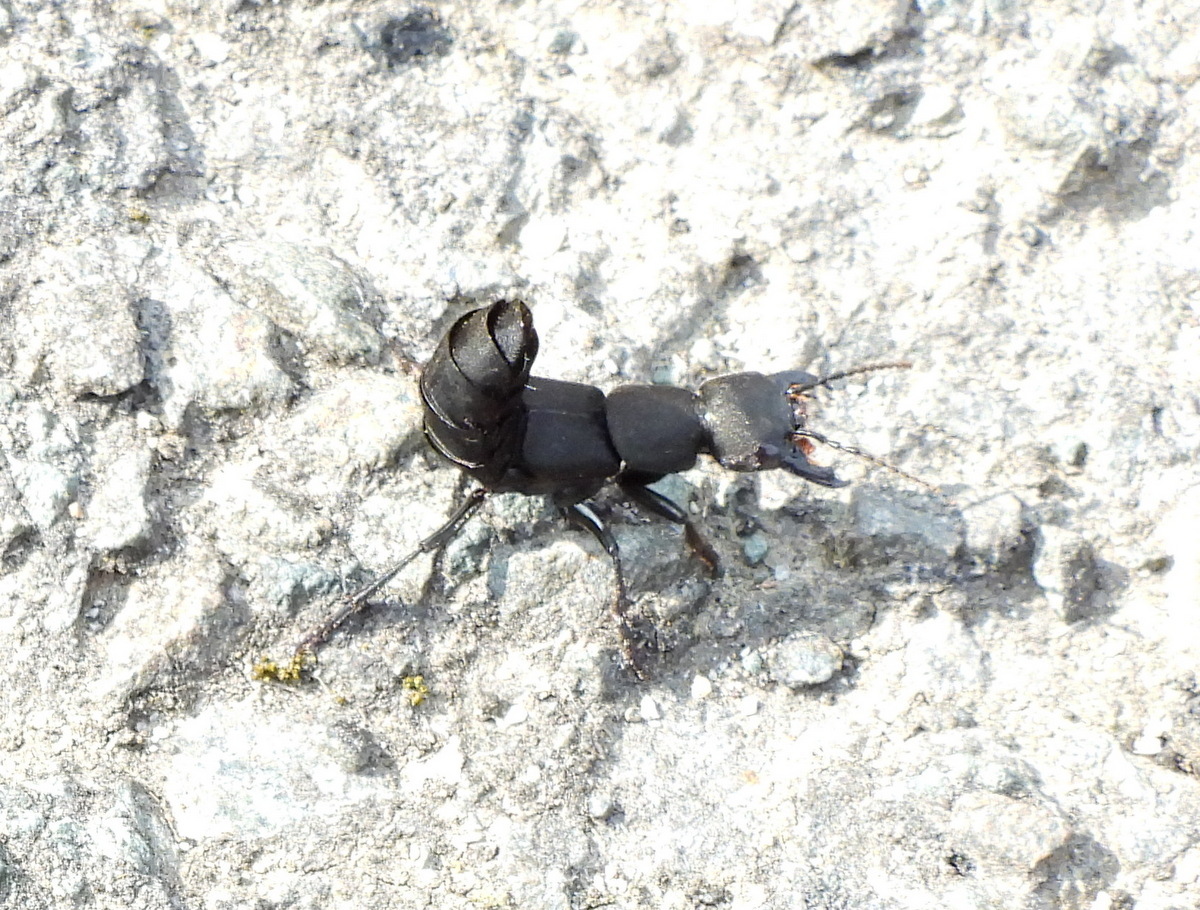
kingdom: Animalia
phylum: Arthropoda
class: Insecta
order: Coleoptera
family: Staphylinidae
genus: Ocypus
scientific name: Ocypus olens
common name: Devil's coach-horse
